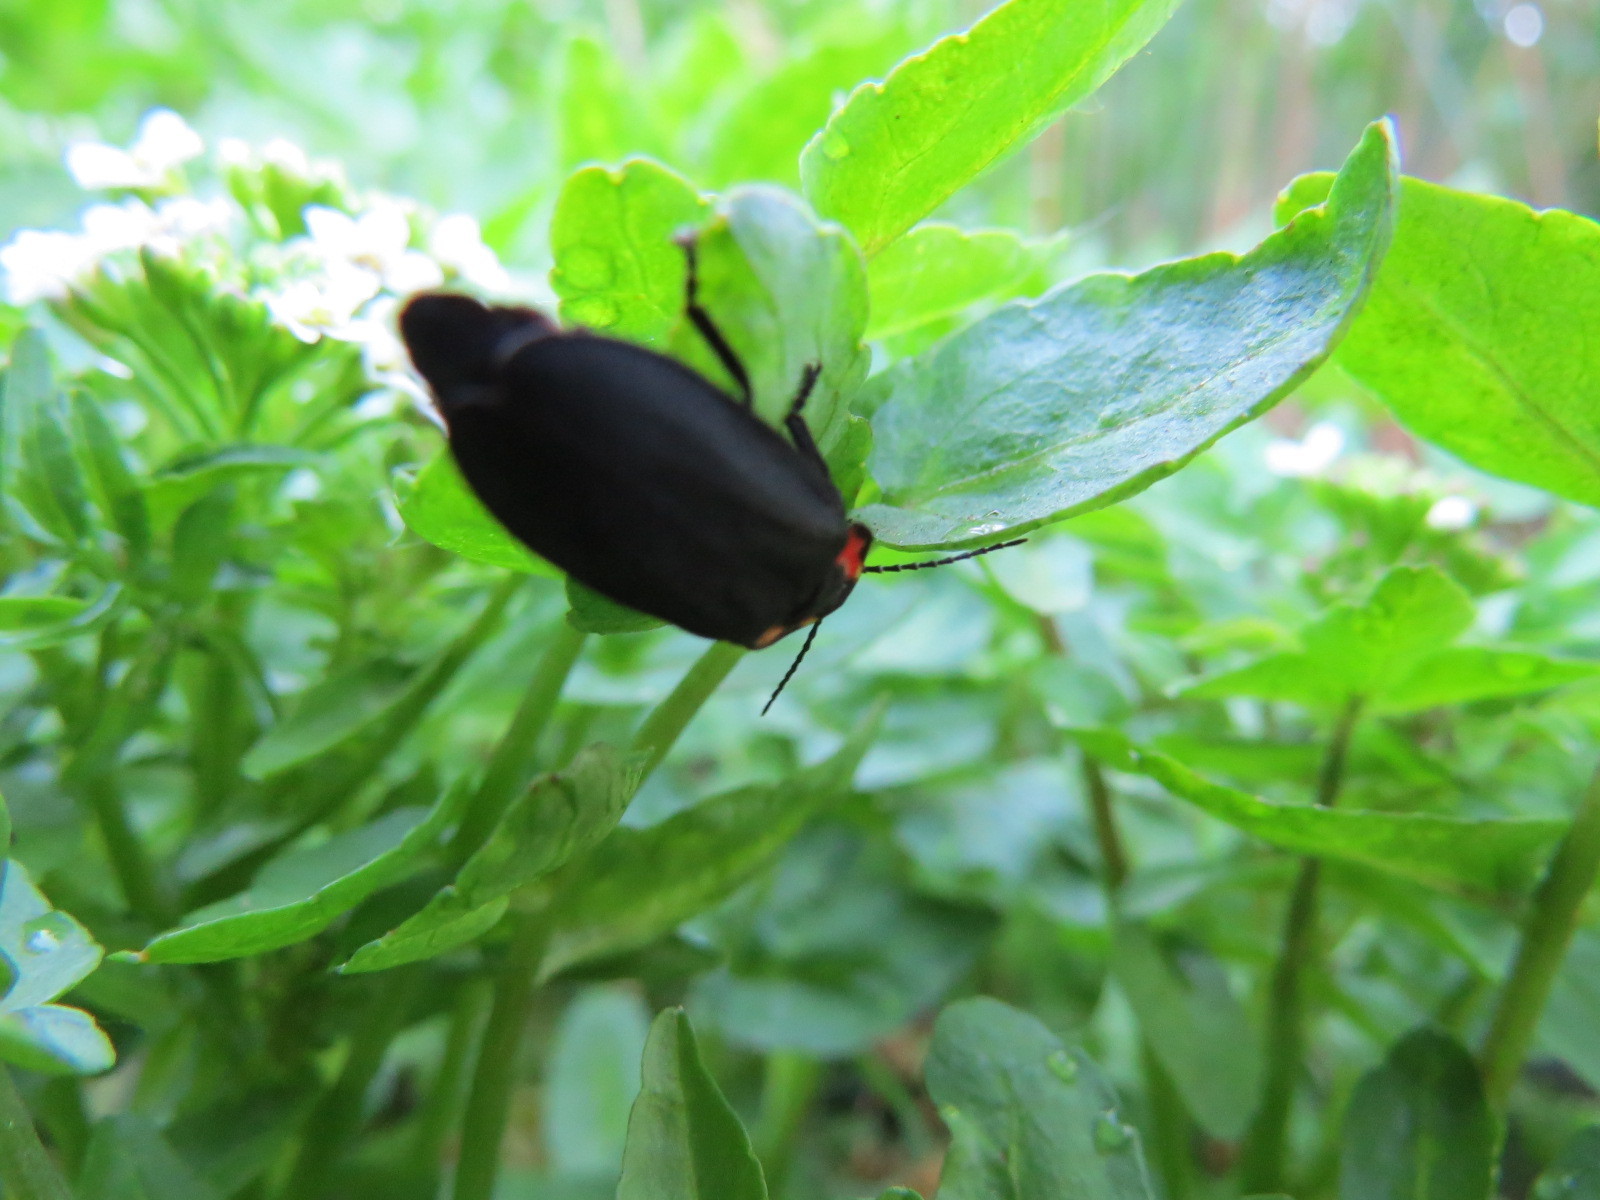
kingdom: Animalia
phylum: Arthropoda
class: Insecta
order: Coleoptera
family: Lampyridae
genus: Photinus
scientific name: Photinus californica
